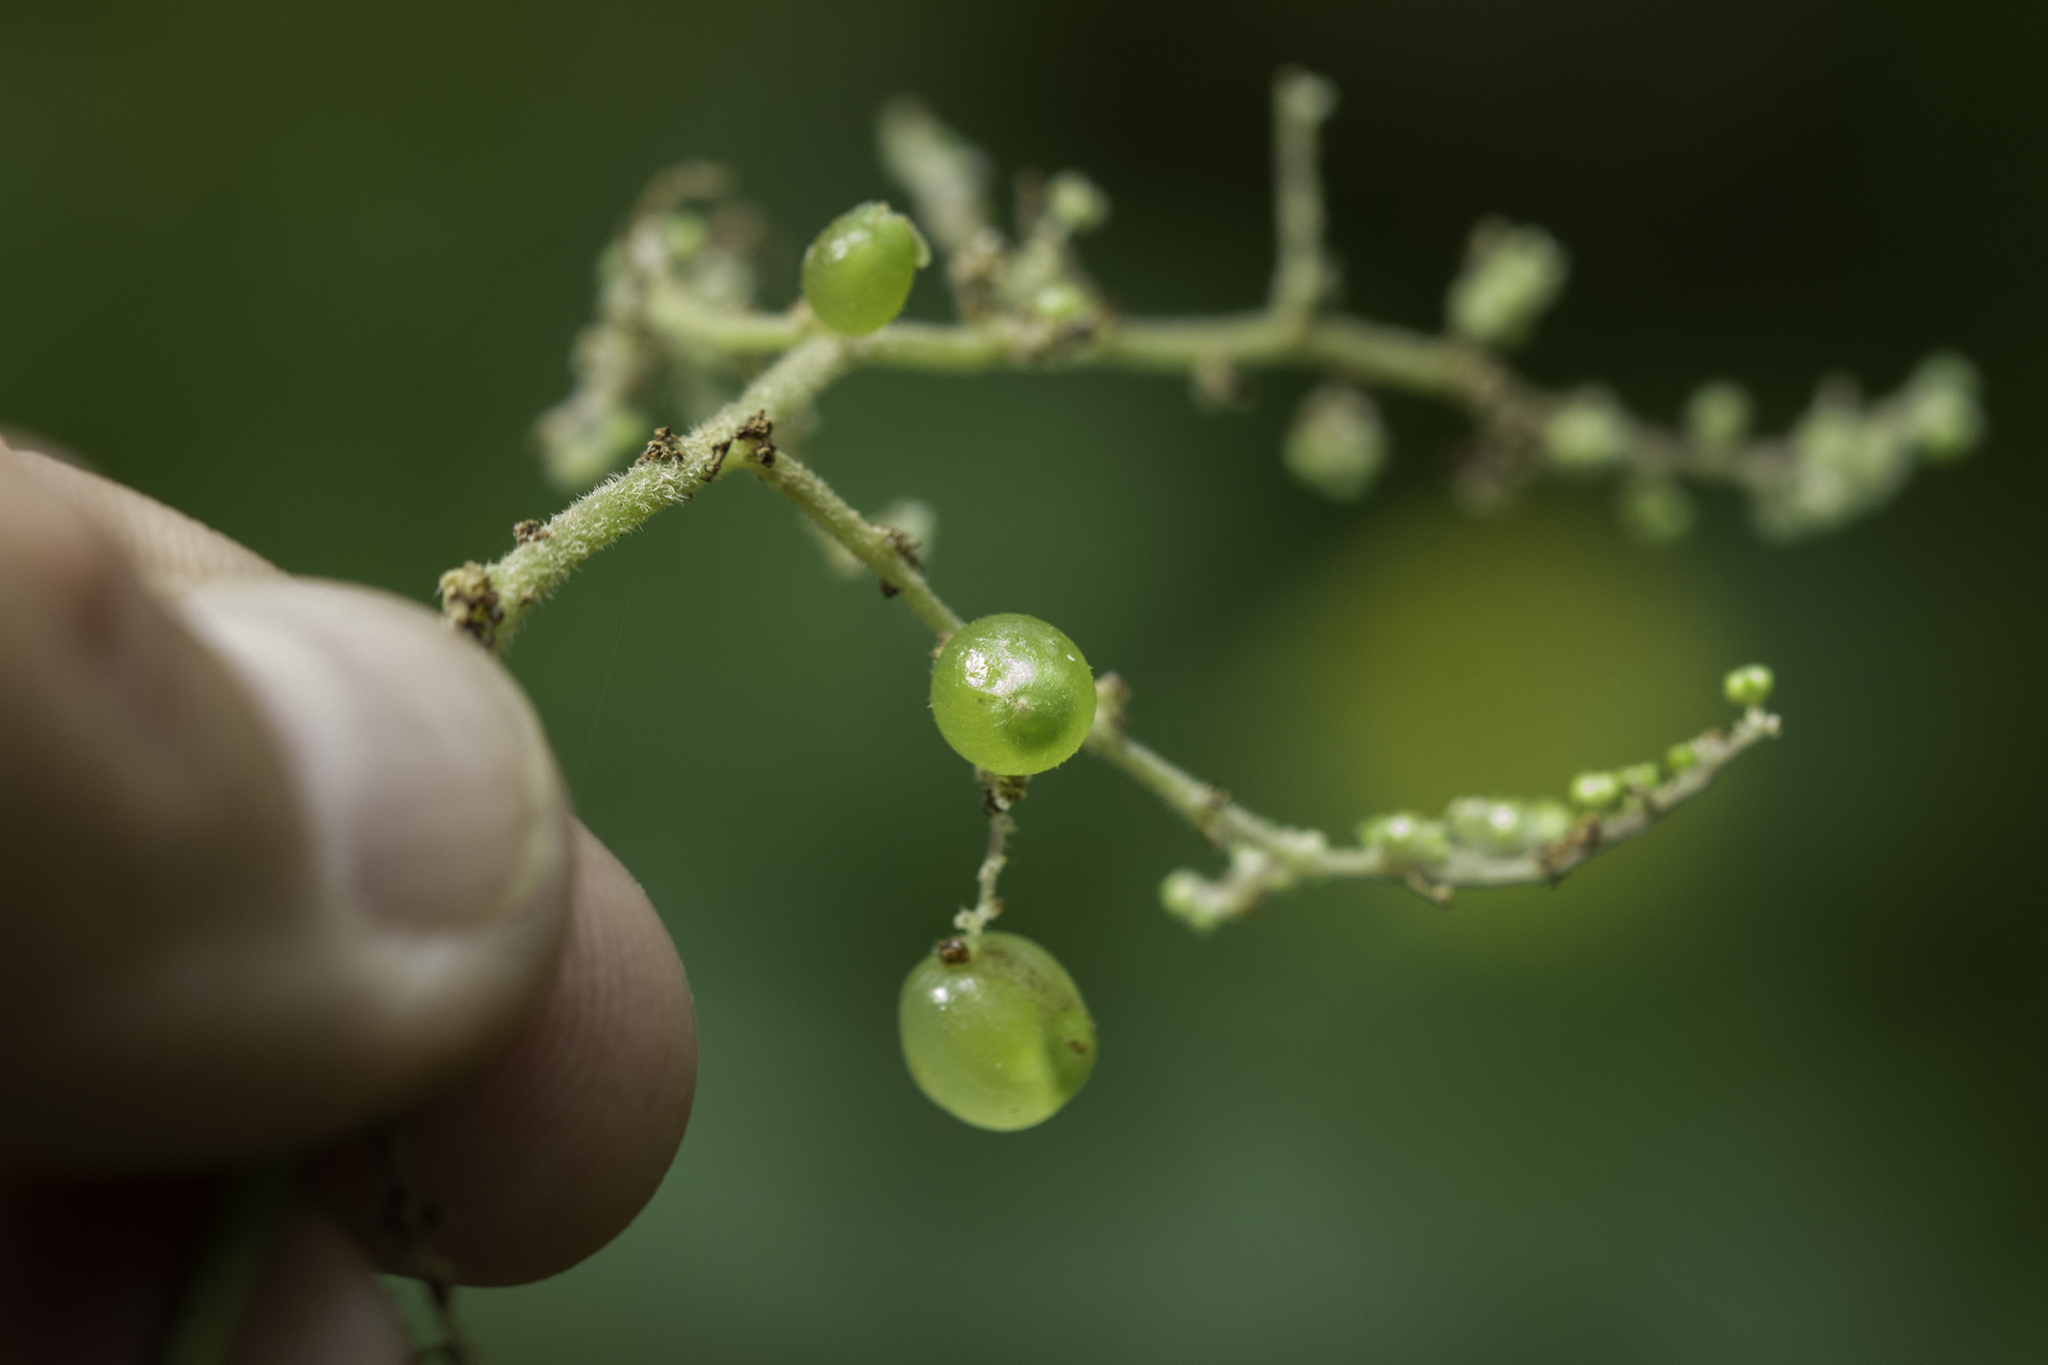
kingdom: Plantae
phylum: Tracheophyta
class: Magnoliopsida
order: Rosales
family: Urticaceae
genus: Laportea
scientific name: Laportea canadensis
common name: Canada nettle
